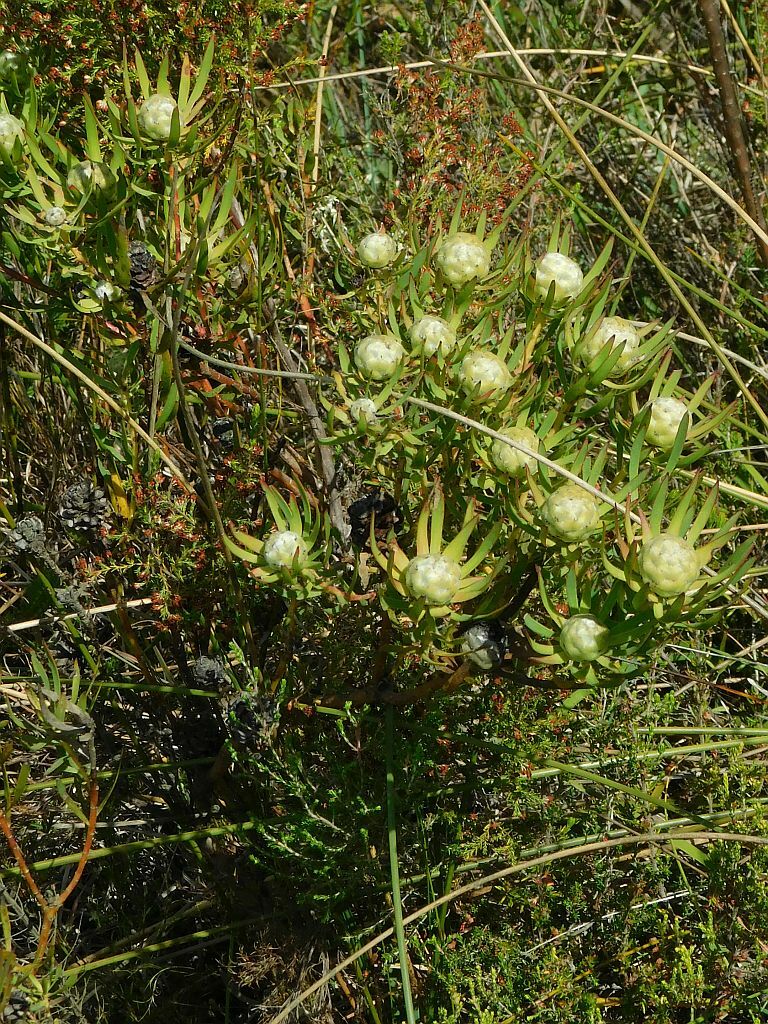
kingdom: Plantae
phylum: Tracheophyta
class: Magnoliopsida
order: Proteales
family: Proteaceae
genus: Leucadendron
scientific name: Leucadendron salignum
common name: Common sunshine conebush
